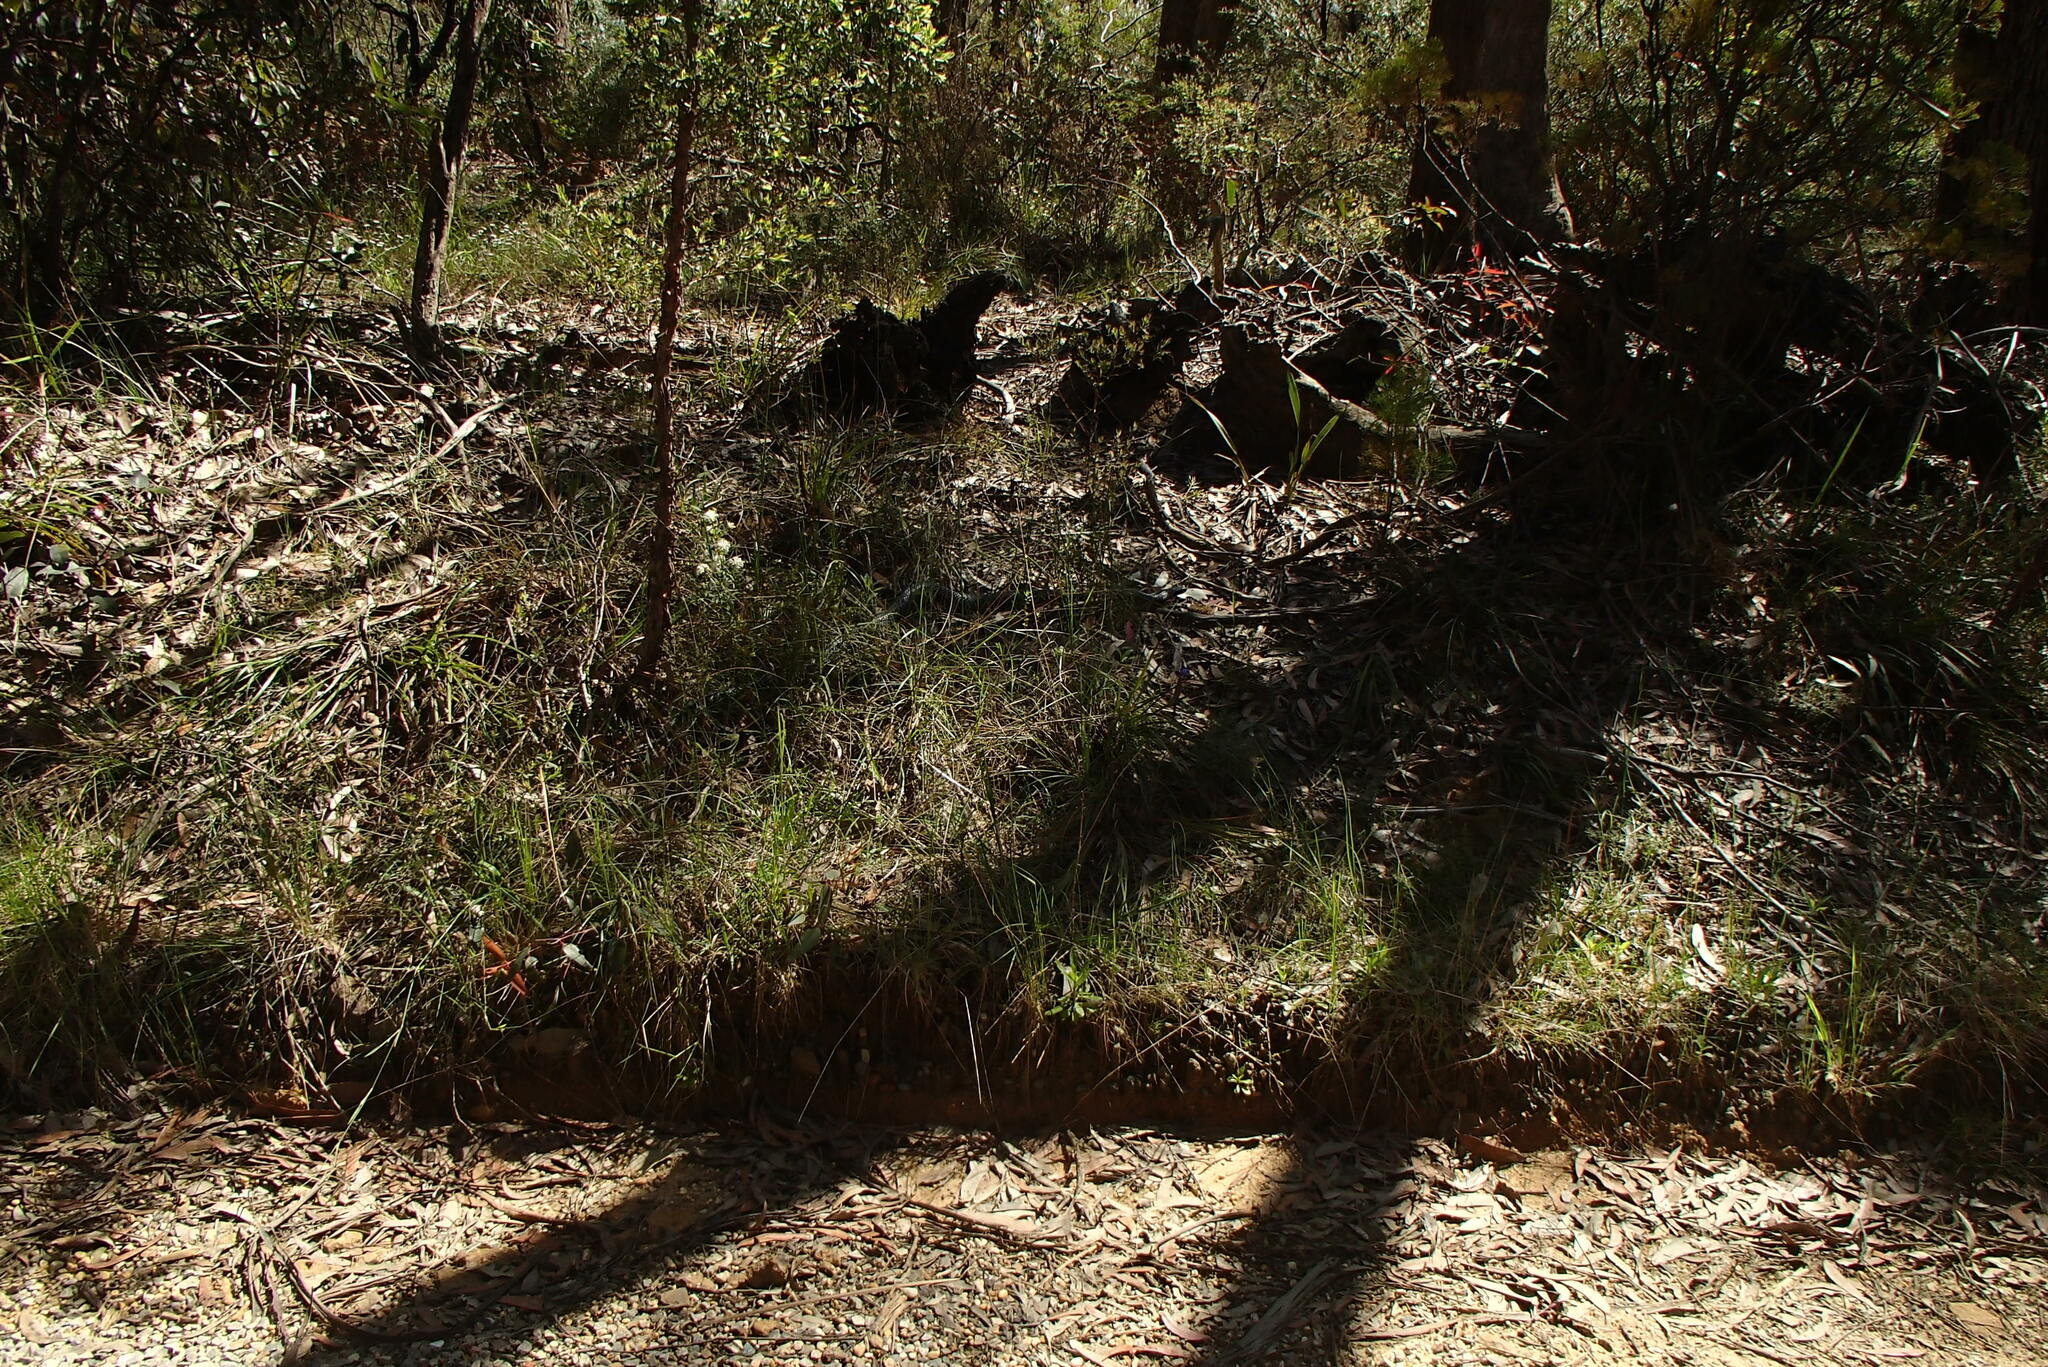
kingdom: Animalia
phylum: Chordata
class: Squamata
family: Elapidae
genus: Pseudechis
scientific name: Pseudechis porphyriacus
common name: Australian black snake
